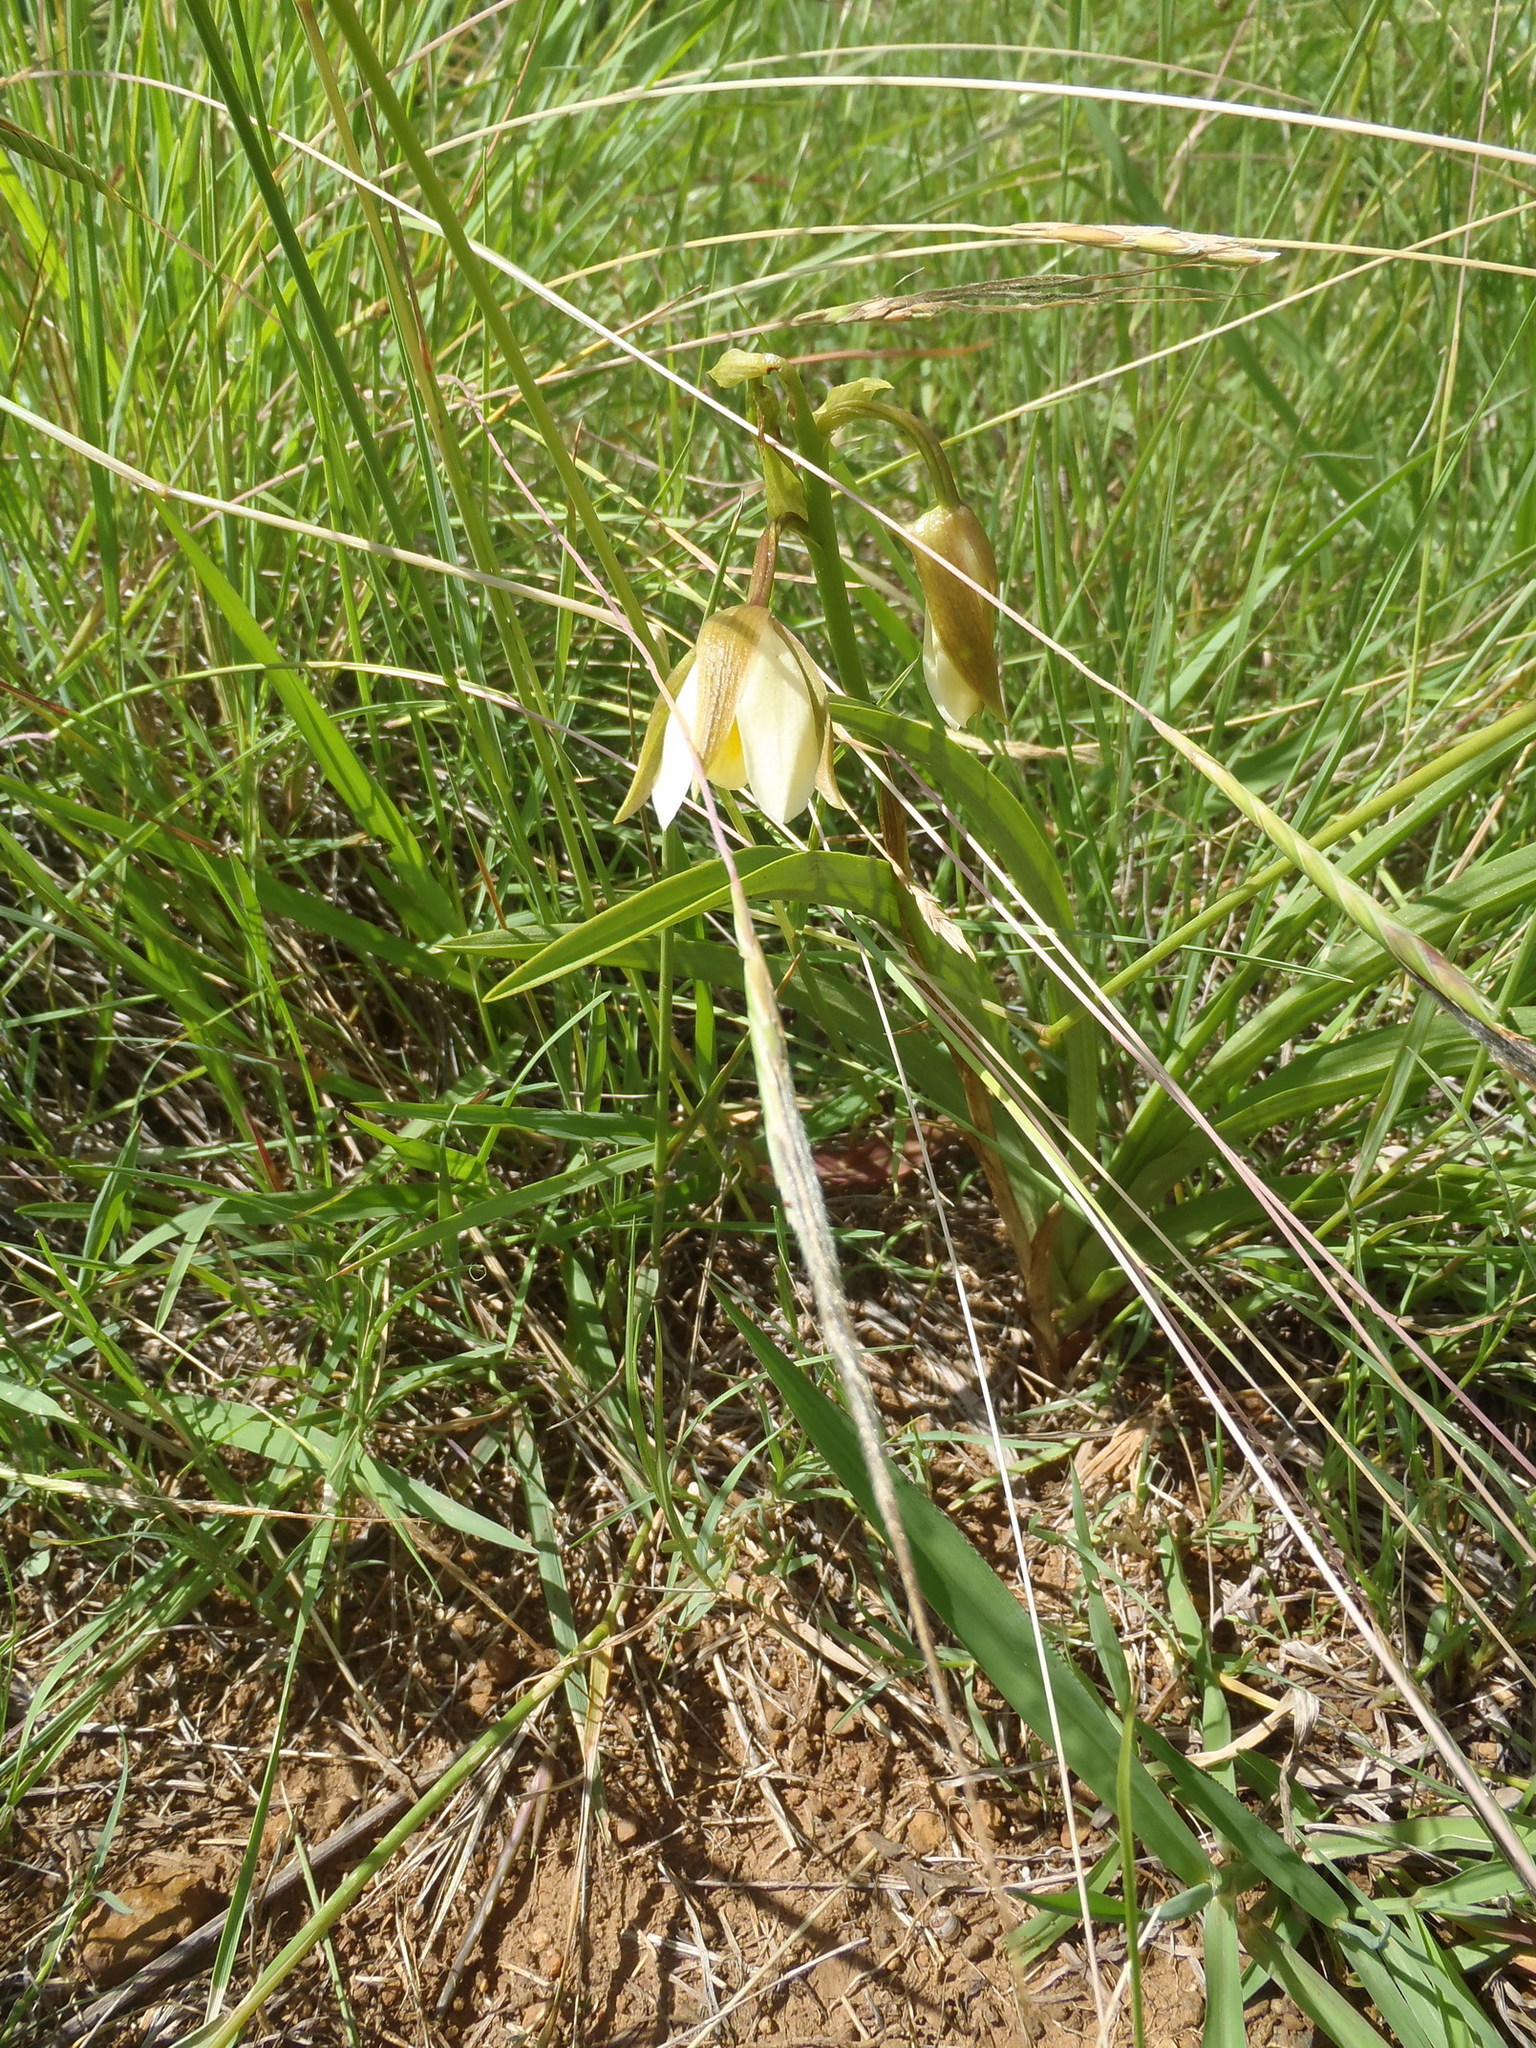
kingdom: Plantae
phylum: Tracheophyta
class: Liliopsida
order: Asparagales
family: Orchidaceae
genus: Eulophia
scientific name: Eulophia ovalis
